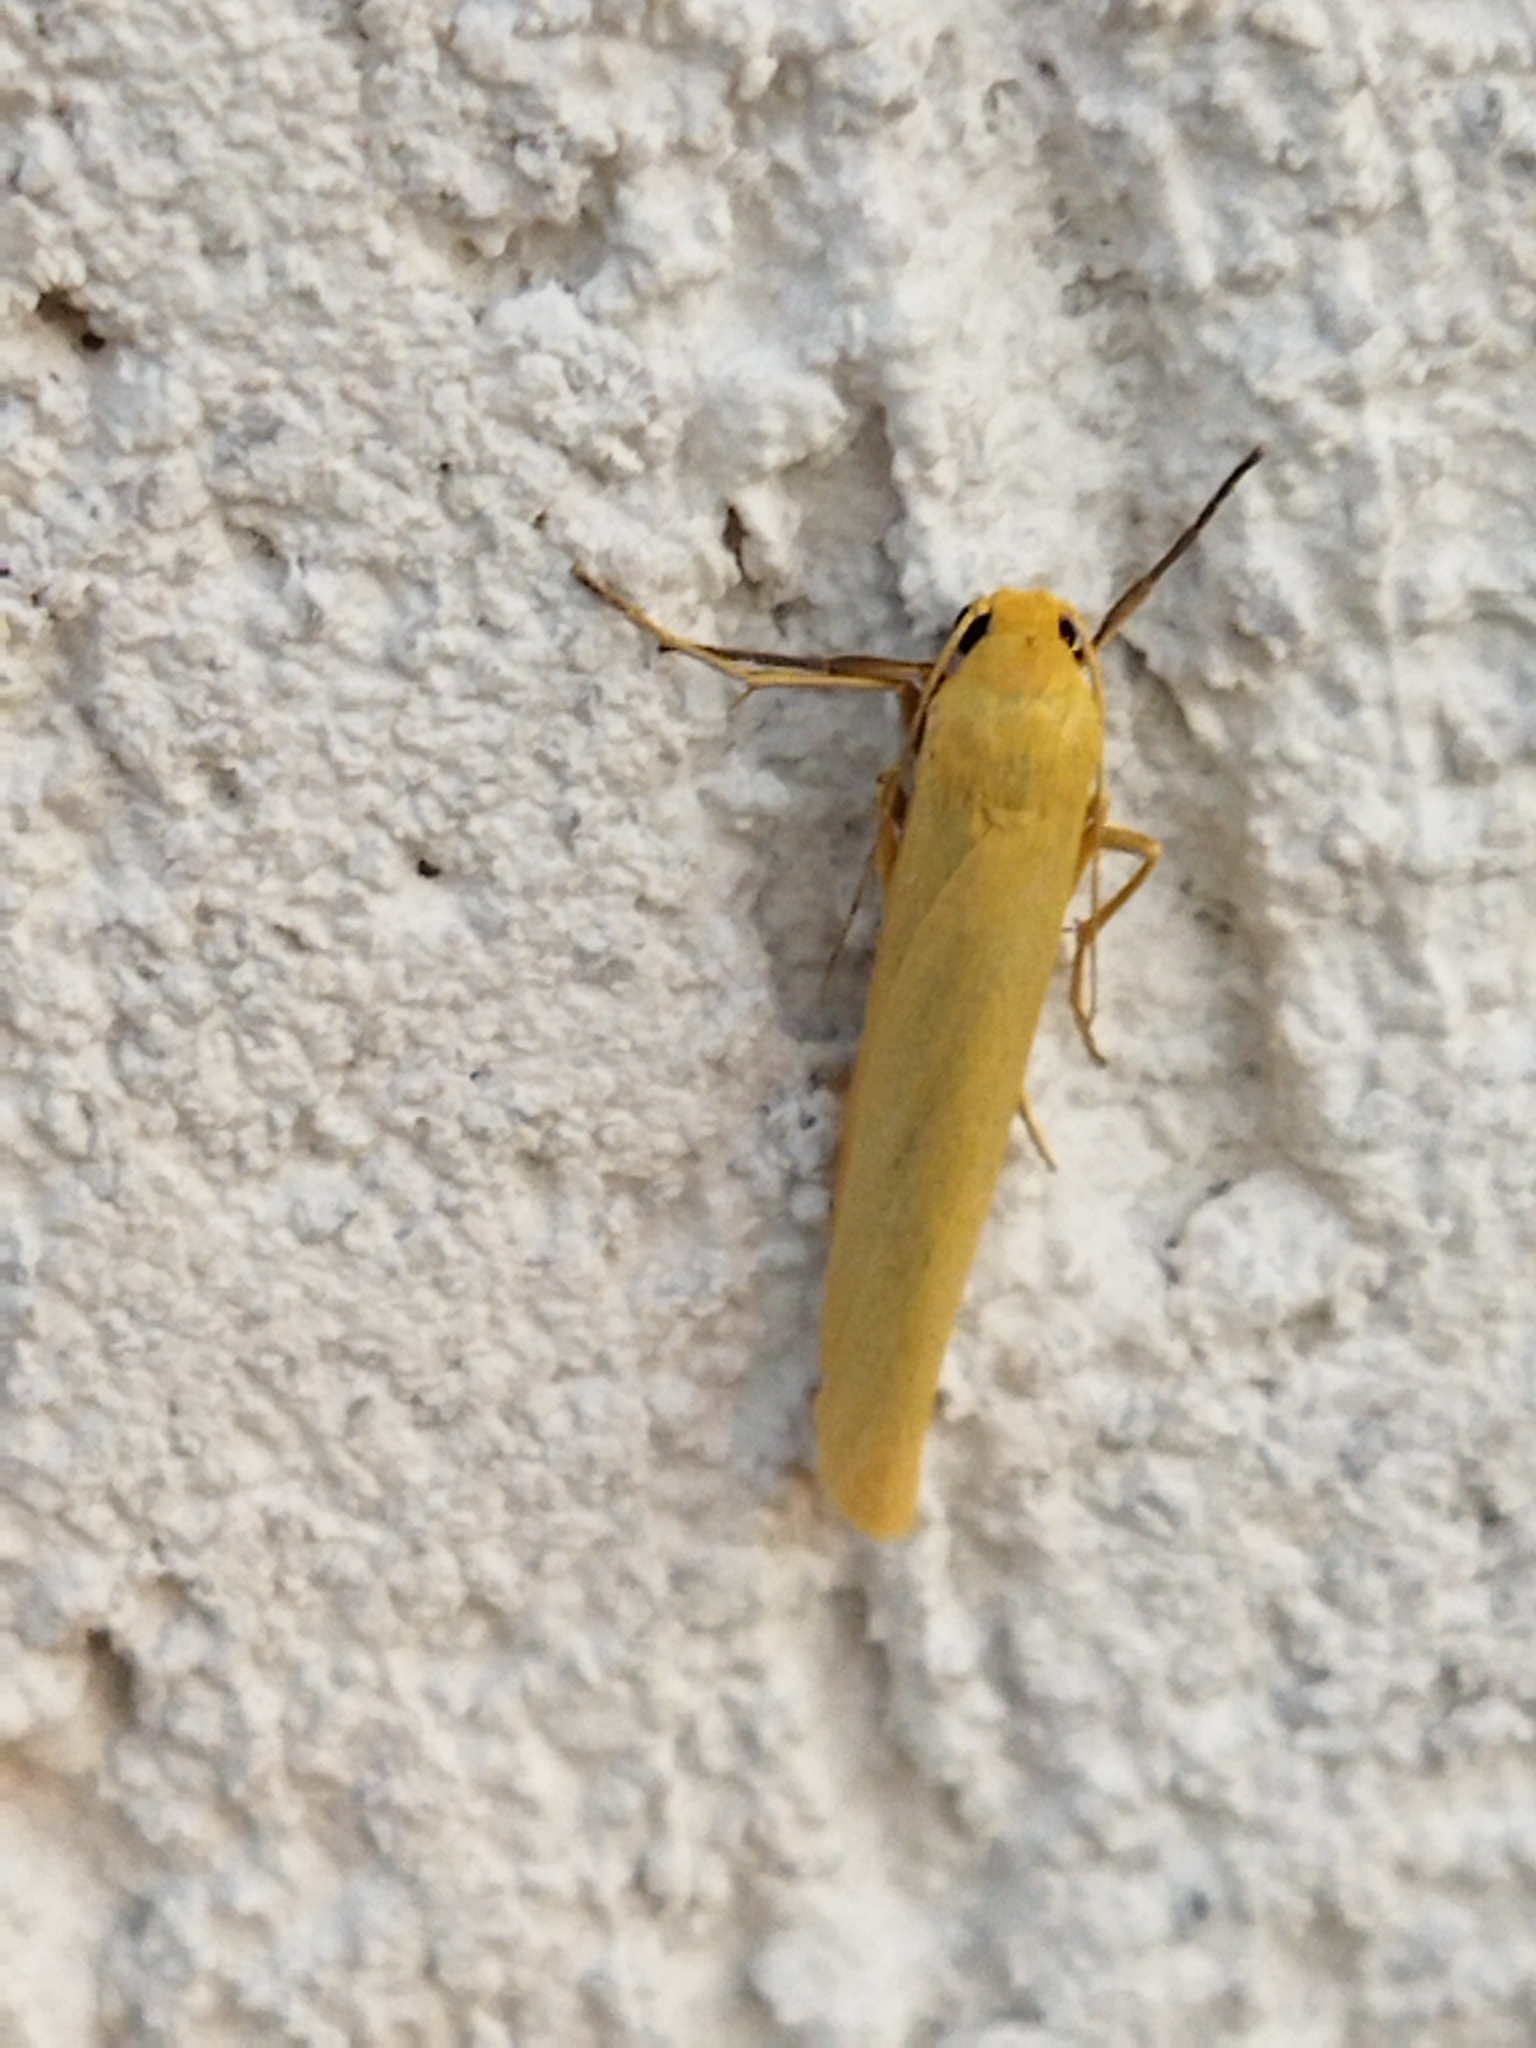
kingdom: Animalia
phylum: Arthropoda
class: Insecta
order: Lepidoptera
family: Erebidae
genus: Wittia
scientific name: Wittia sororcula
